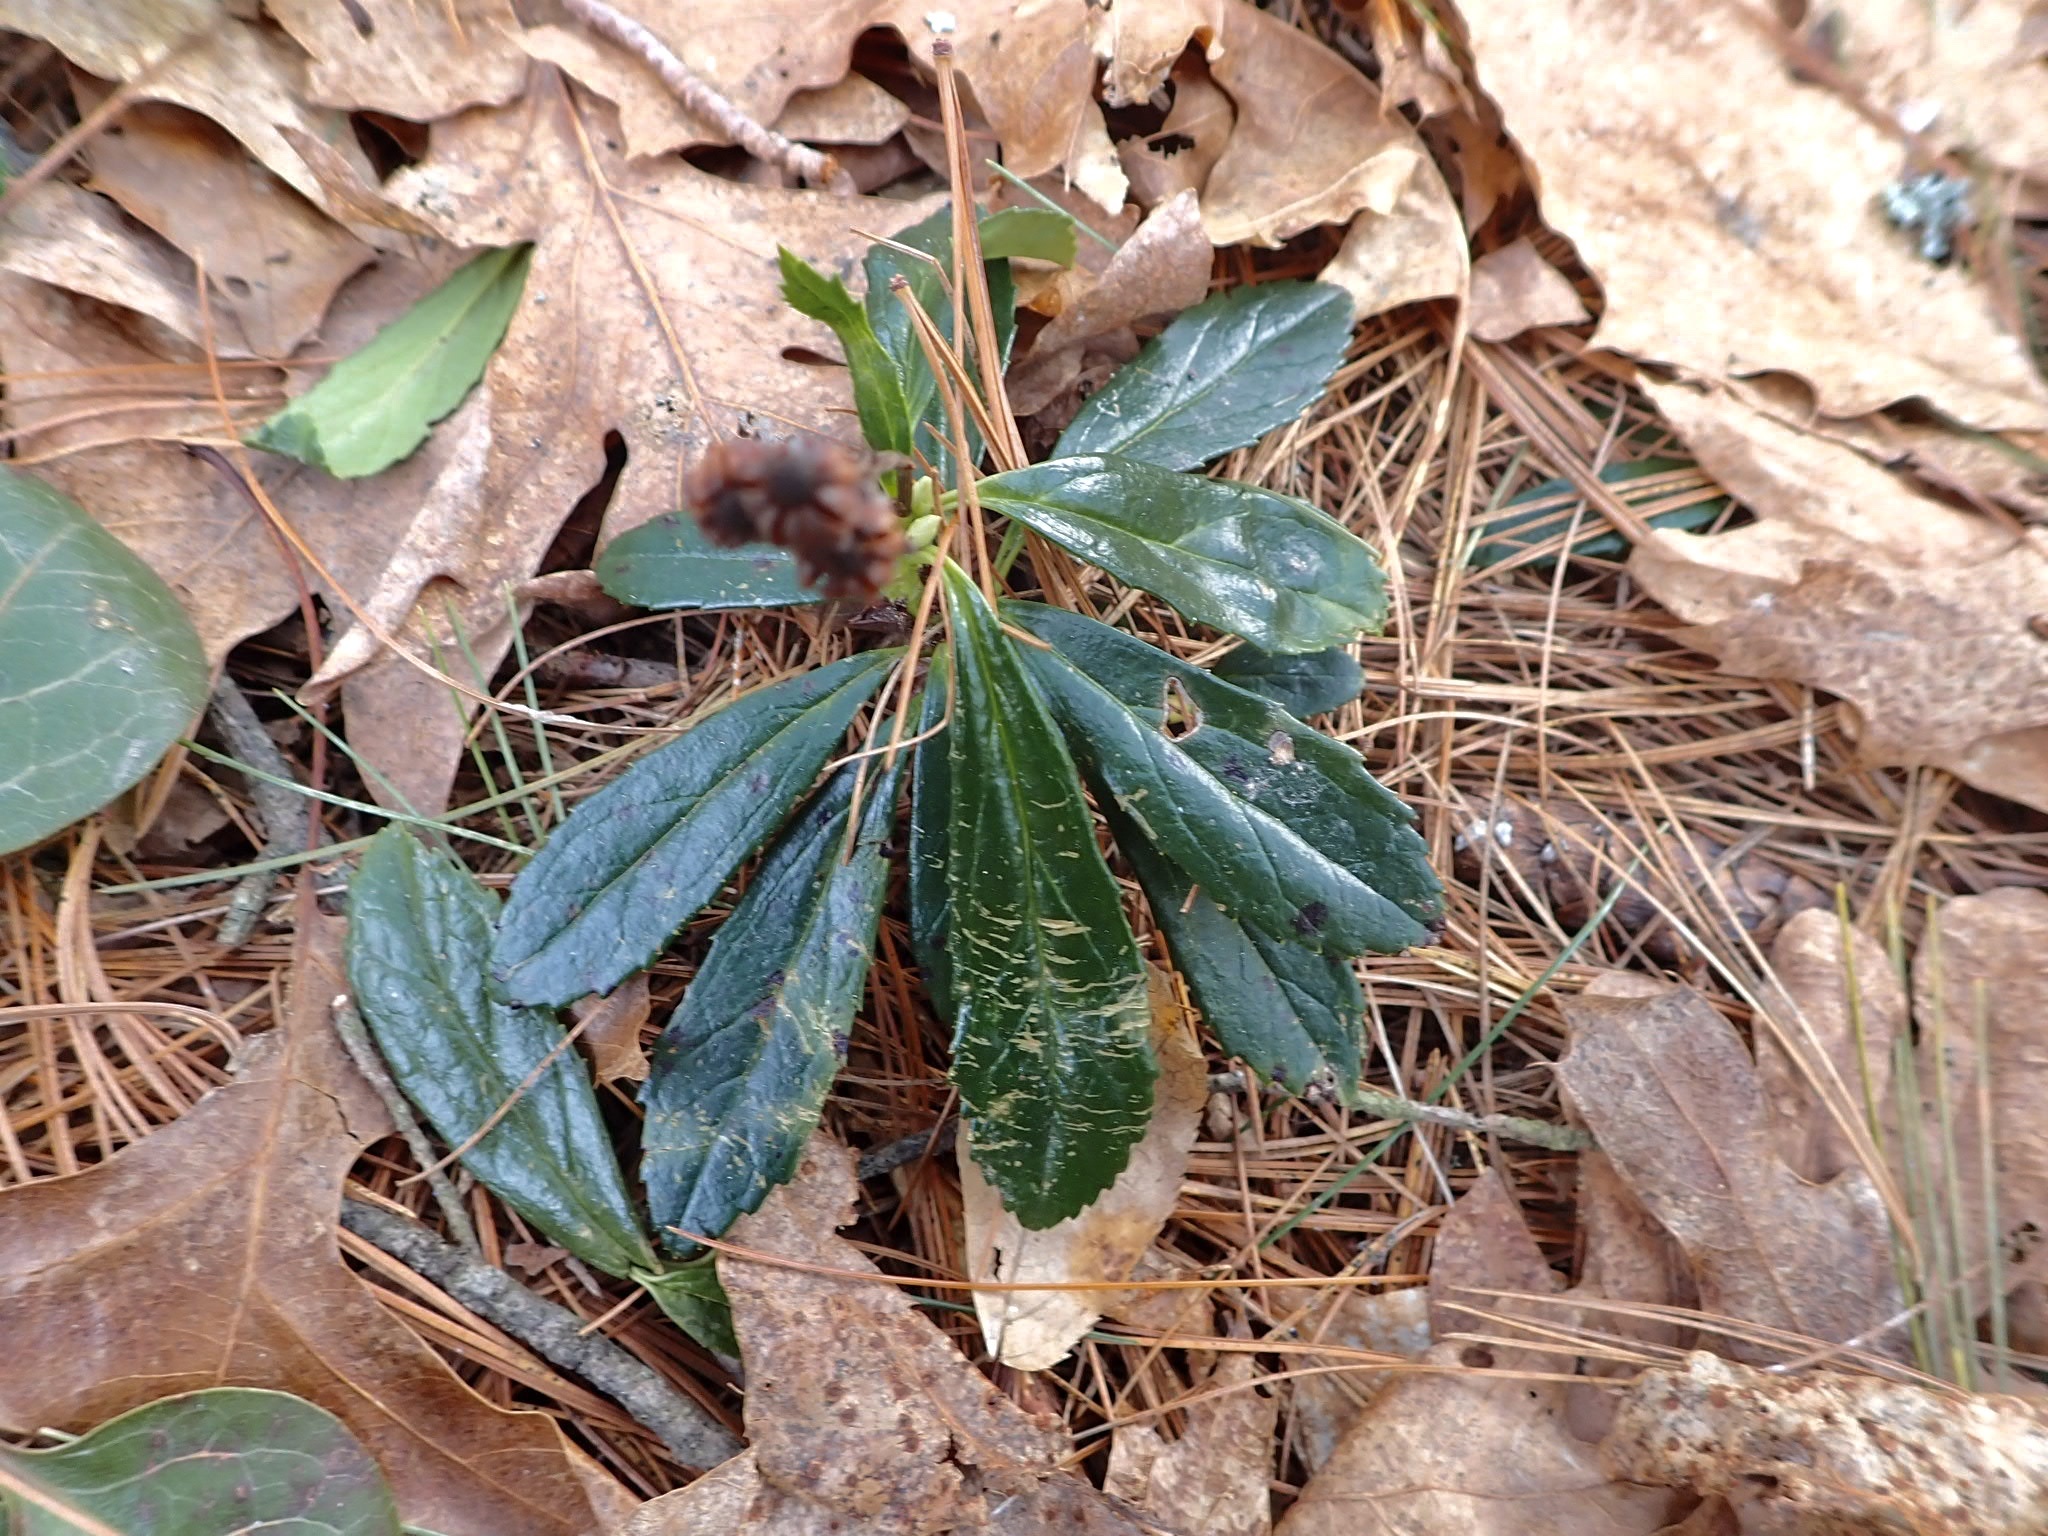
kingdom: Plantae
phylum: Tracheophyta
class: Magnoliopsida
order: Ericales
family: Ericaceae
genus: Chimaphila
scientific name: Chimaphila umbellata
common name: Pipsissewa
